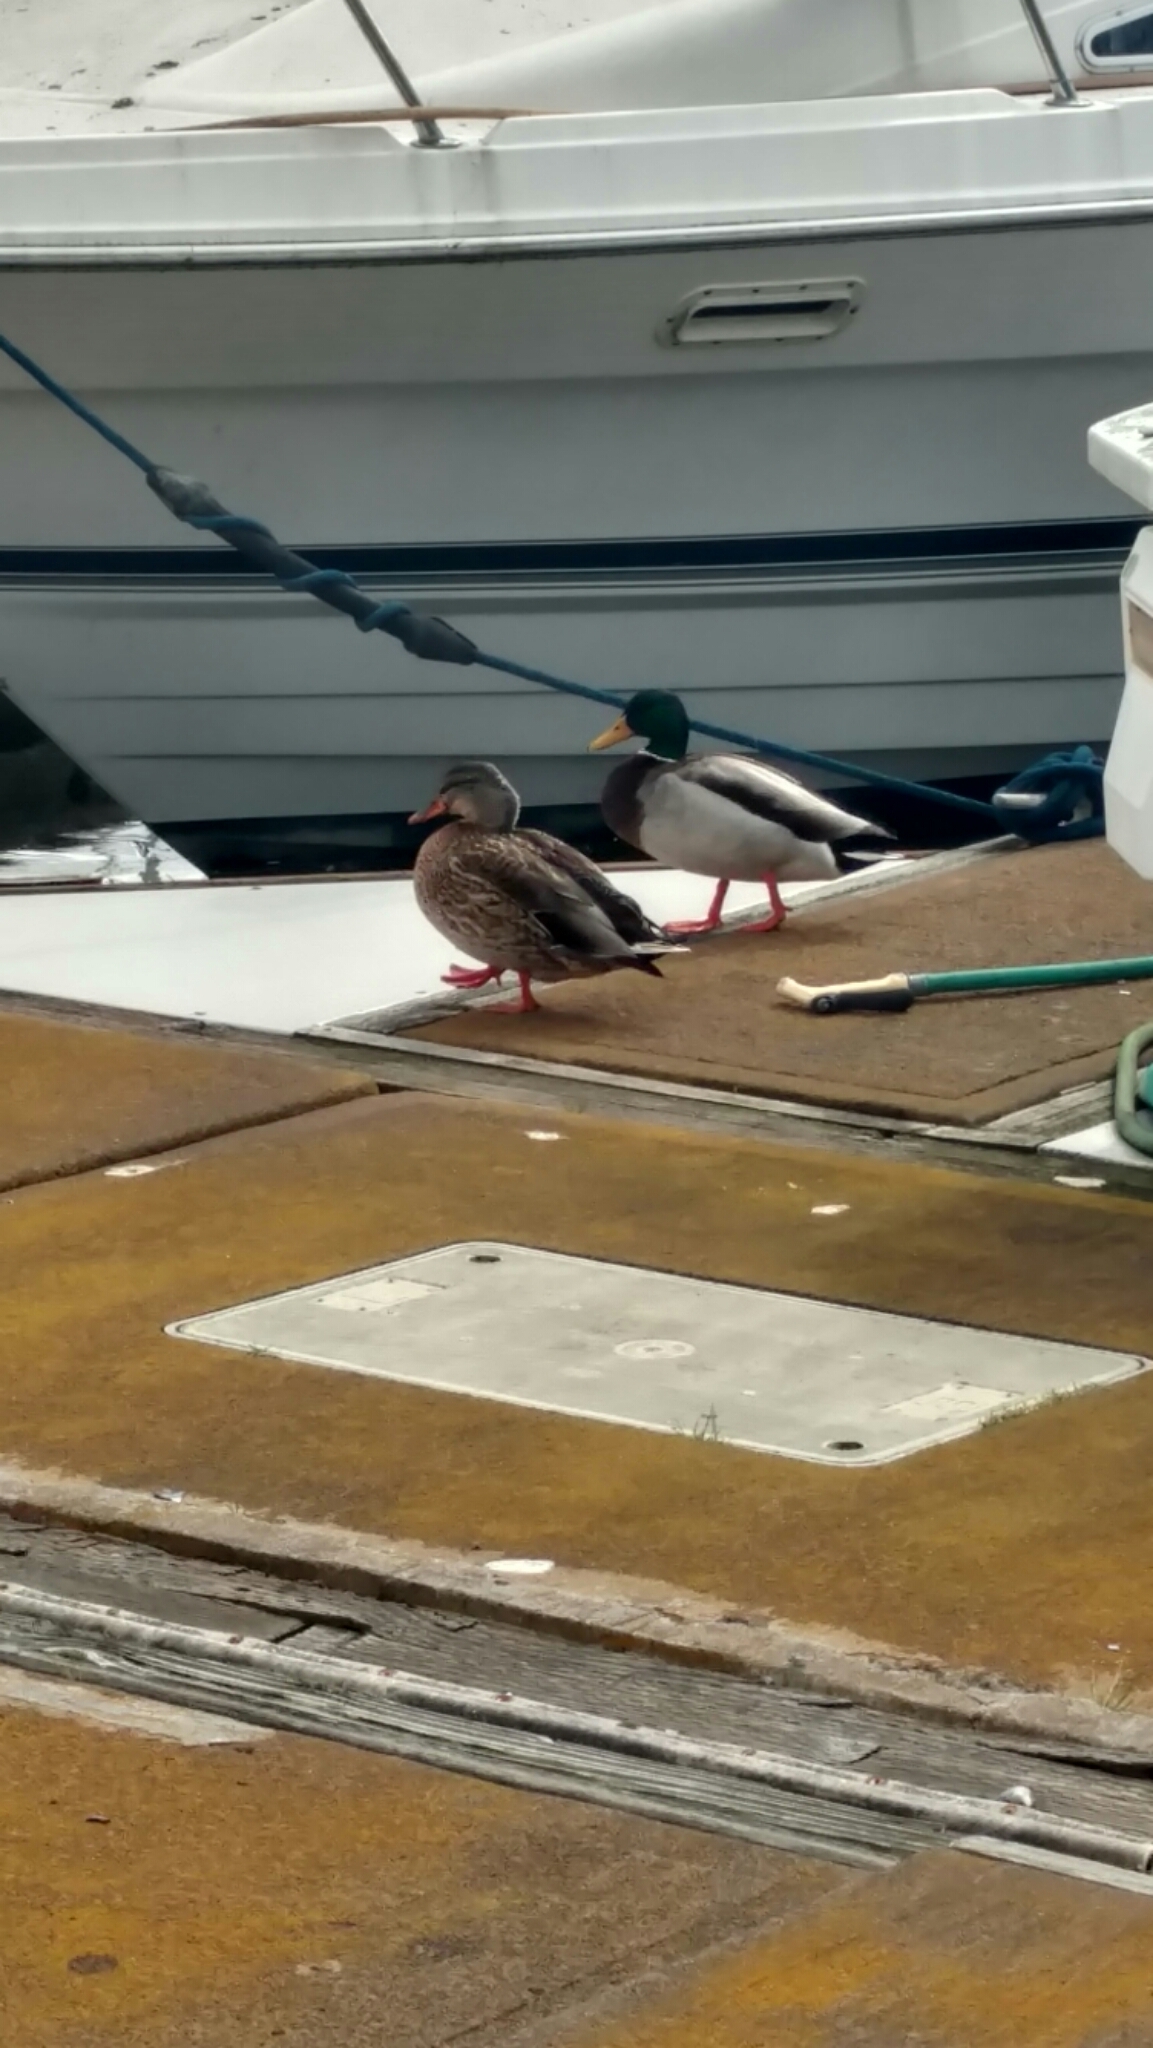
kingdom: Animalia
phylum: Chordata
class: Aves
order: Anseriformes
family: Anatidae
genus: Anas
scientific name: Anas platyrhynchos
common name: Mallard
